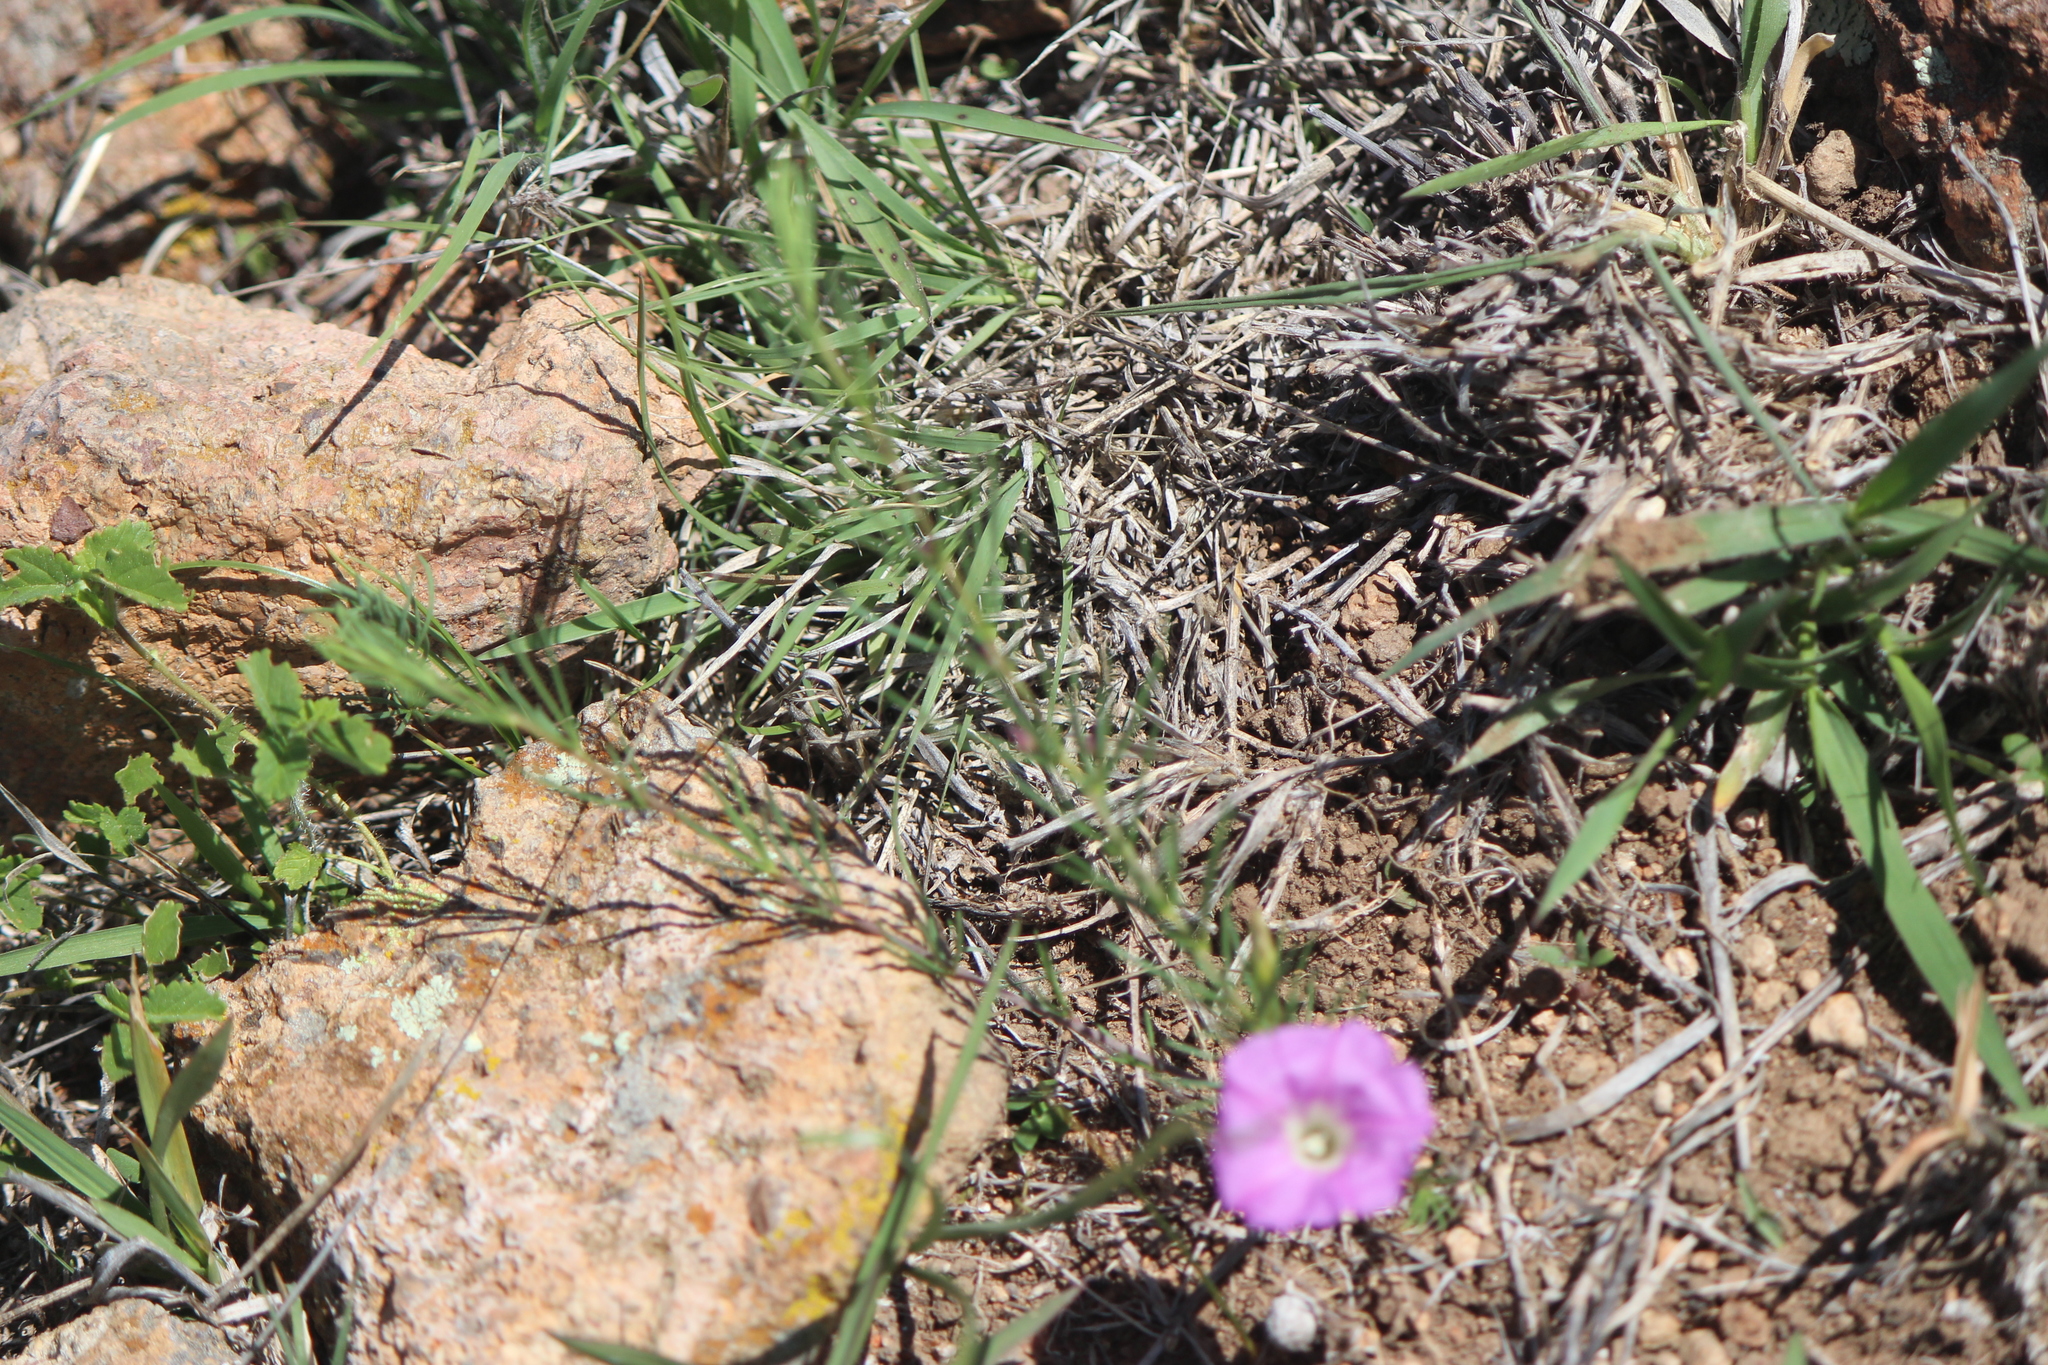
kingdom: Plantae
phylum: Tracheophyta
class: Magnoliopsida
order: Solanales
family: Convolvulaceae
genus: Ipomoea
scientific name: Ipomoea capillacea
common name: Purple morning-glory
